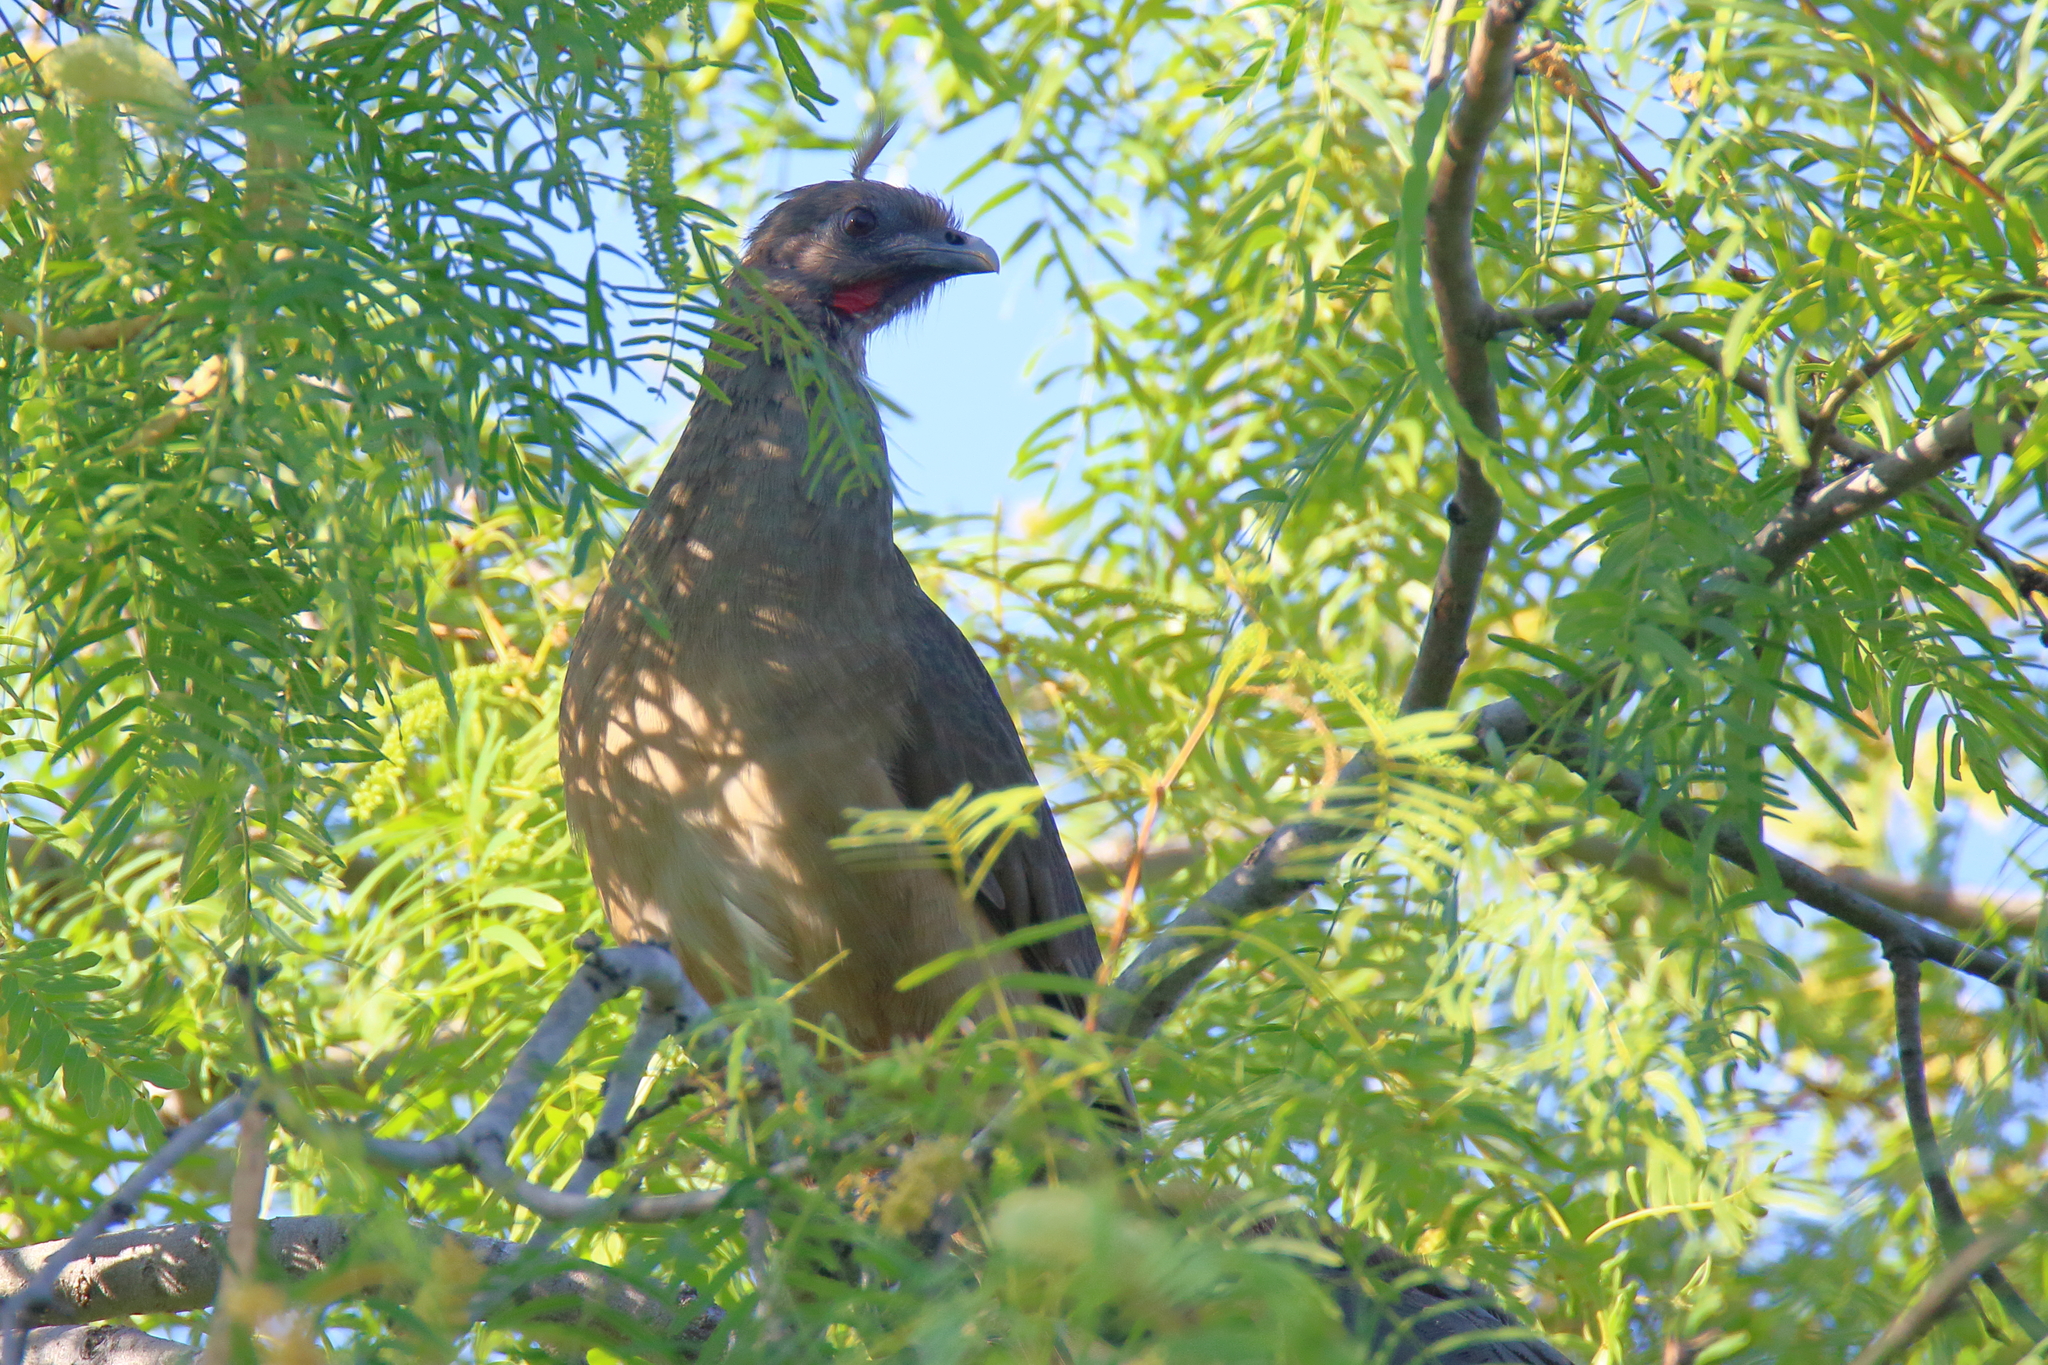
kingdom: Animalia
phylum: Chordata
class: Aves
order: Galliformes
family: Cracidae
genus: Ortalis
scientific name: Ortalis vetula
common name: Plain chachalaca
